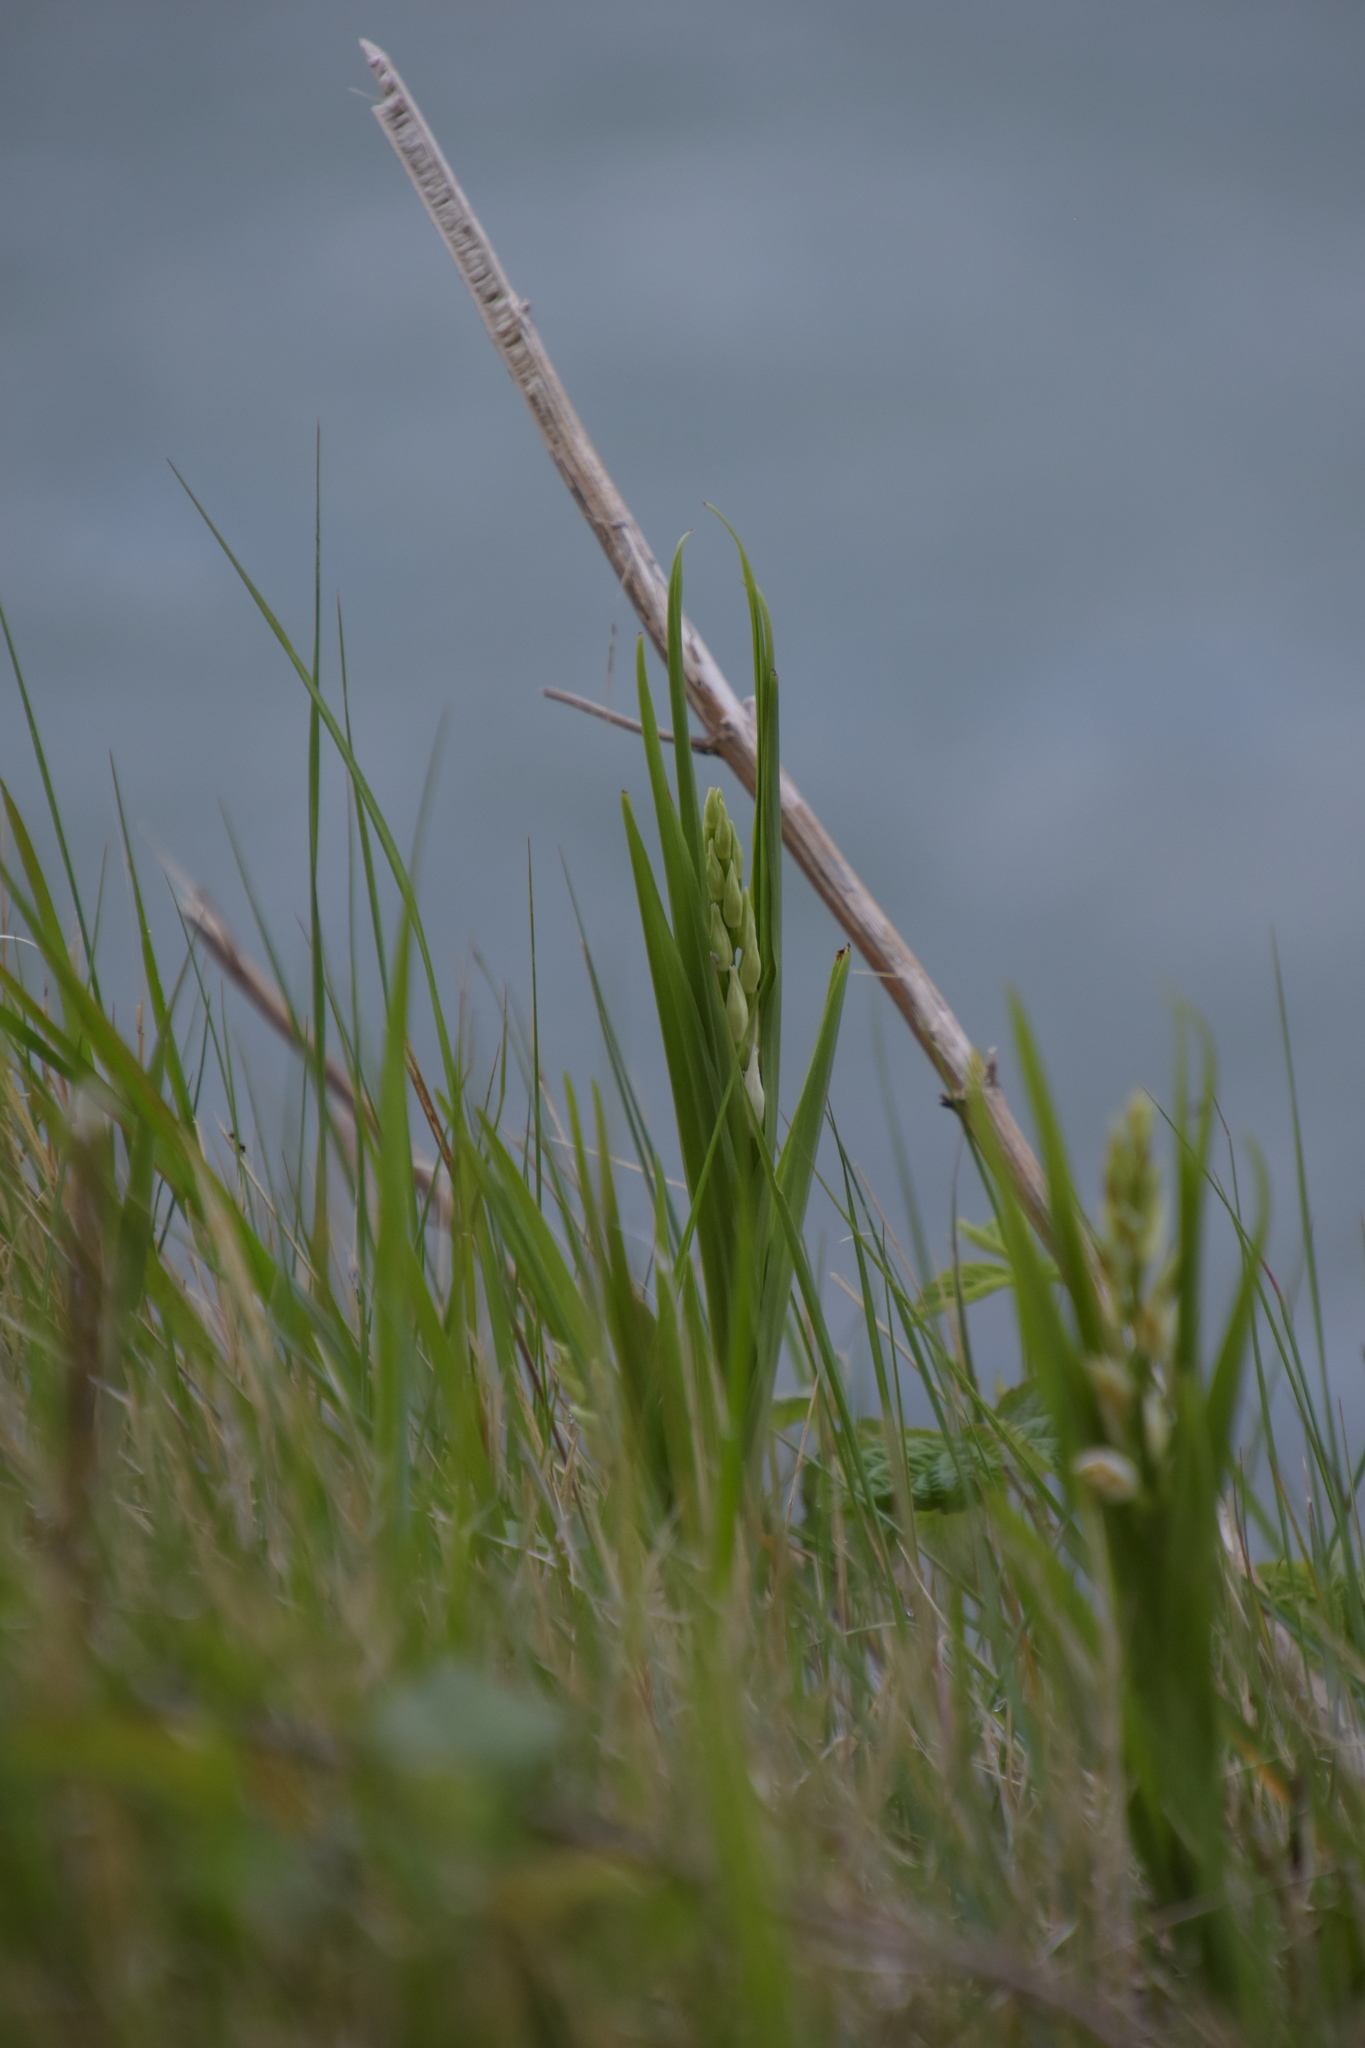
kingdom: Plantae
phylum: Tracheophyta
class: Liliopsida
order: Asparagales
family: Orchidaceae
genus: Cephalanthera
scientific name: Cephalanthera longifolia
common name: Narrow-leaved helleborine
